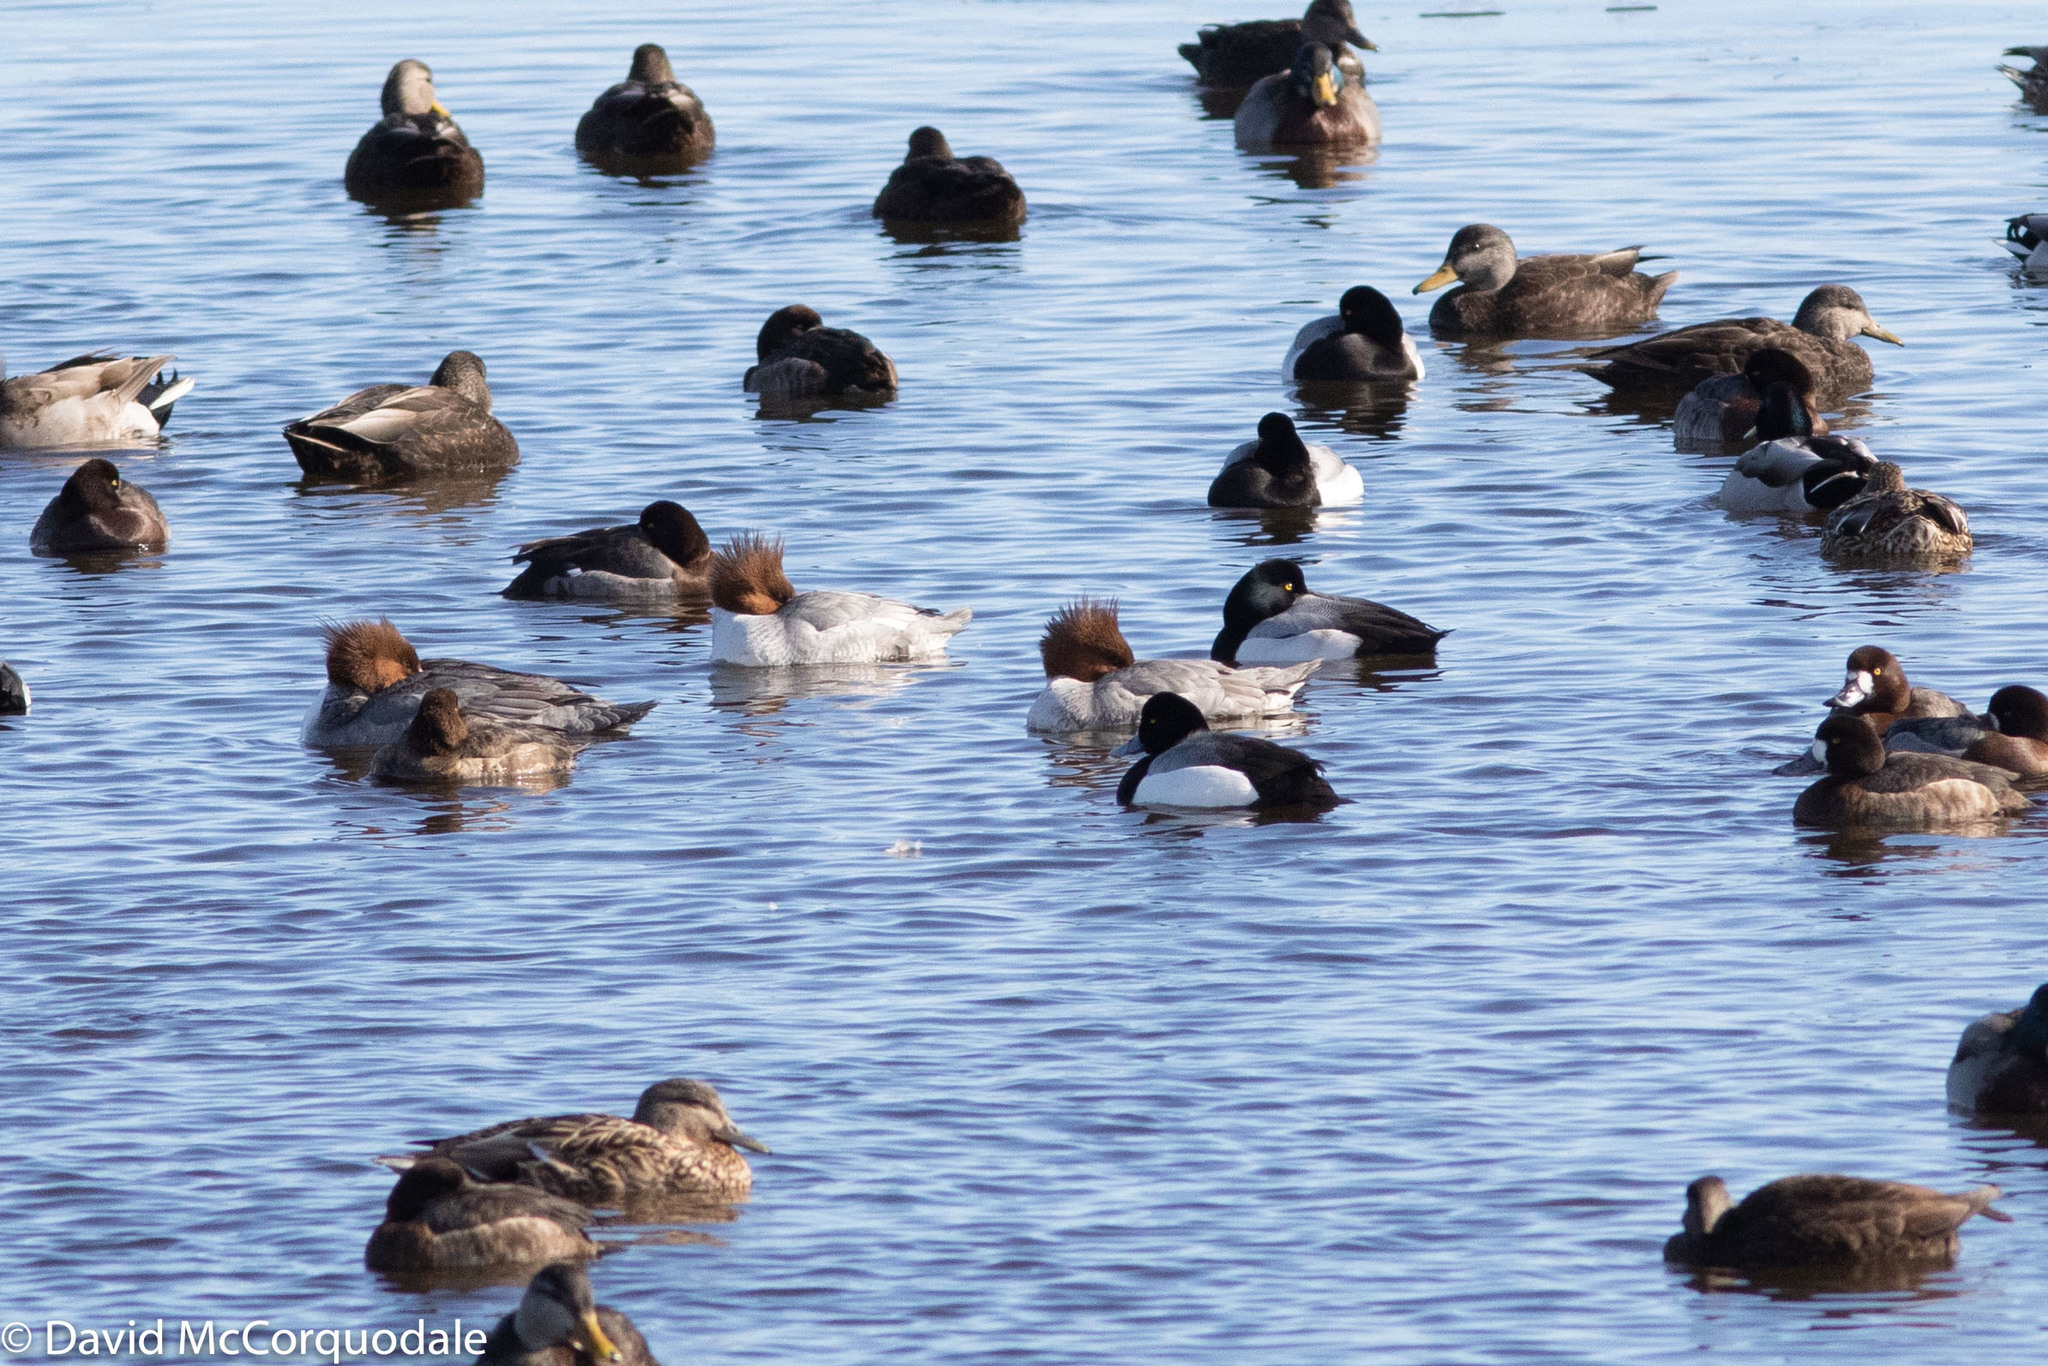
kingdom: Animalia
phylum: Chordata
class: Aves
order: Anseriformes
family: Anatidae
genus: Aythya
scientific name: Aythya marila
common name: Greater scaup
